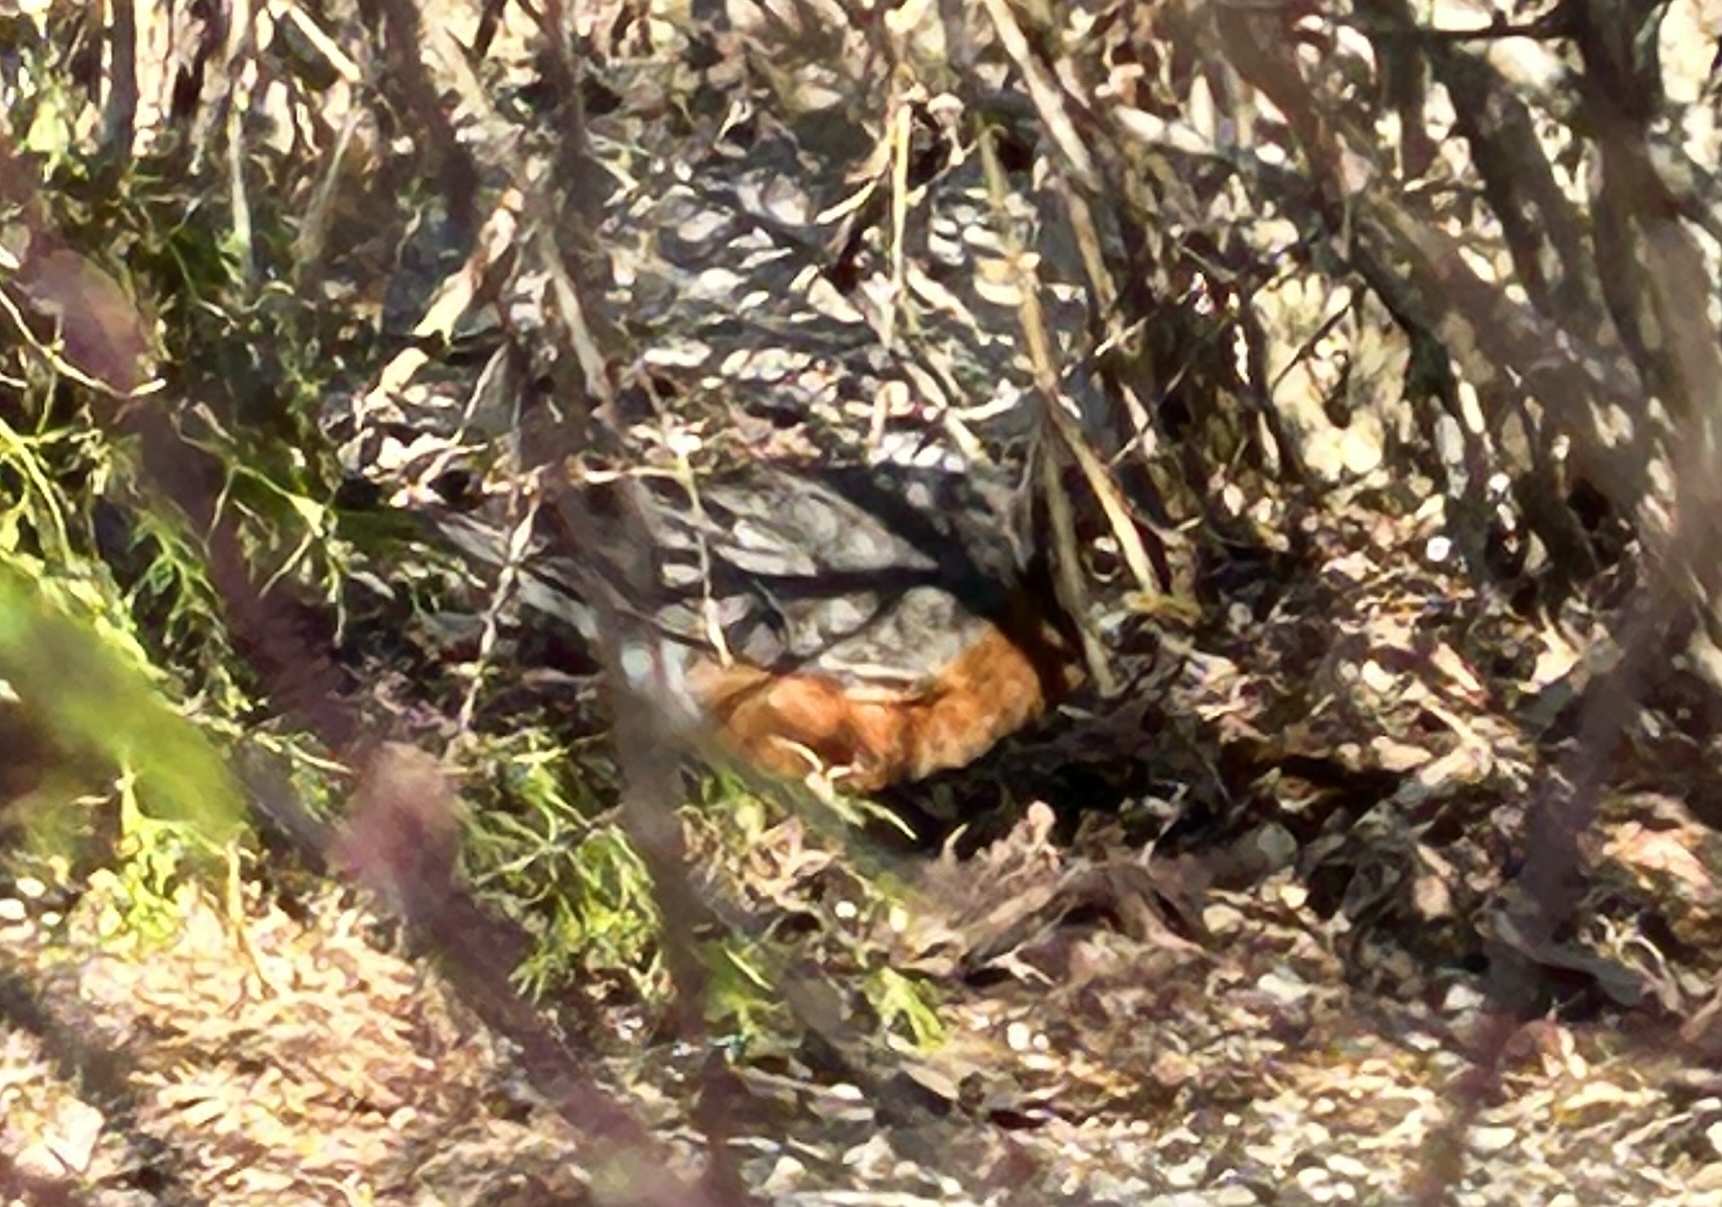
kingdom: Animalia
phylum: Chordata
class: Aves
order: Passeriformes
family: Turdidae
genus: Turdus
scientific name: Turdus migratorius
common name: American robin
